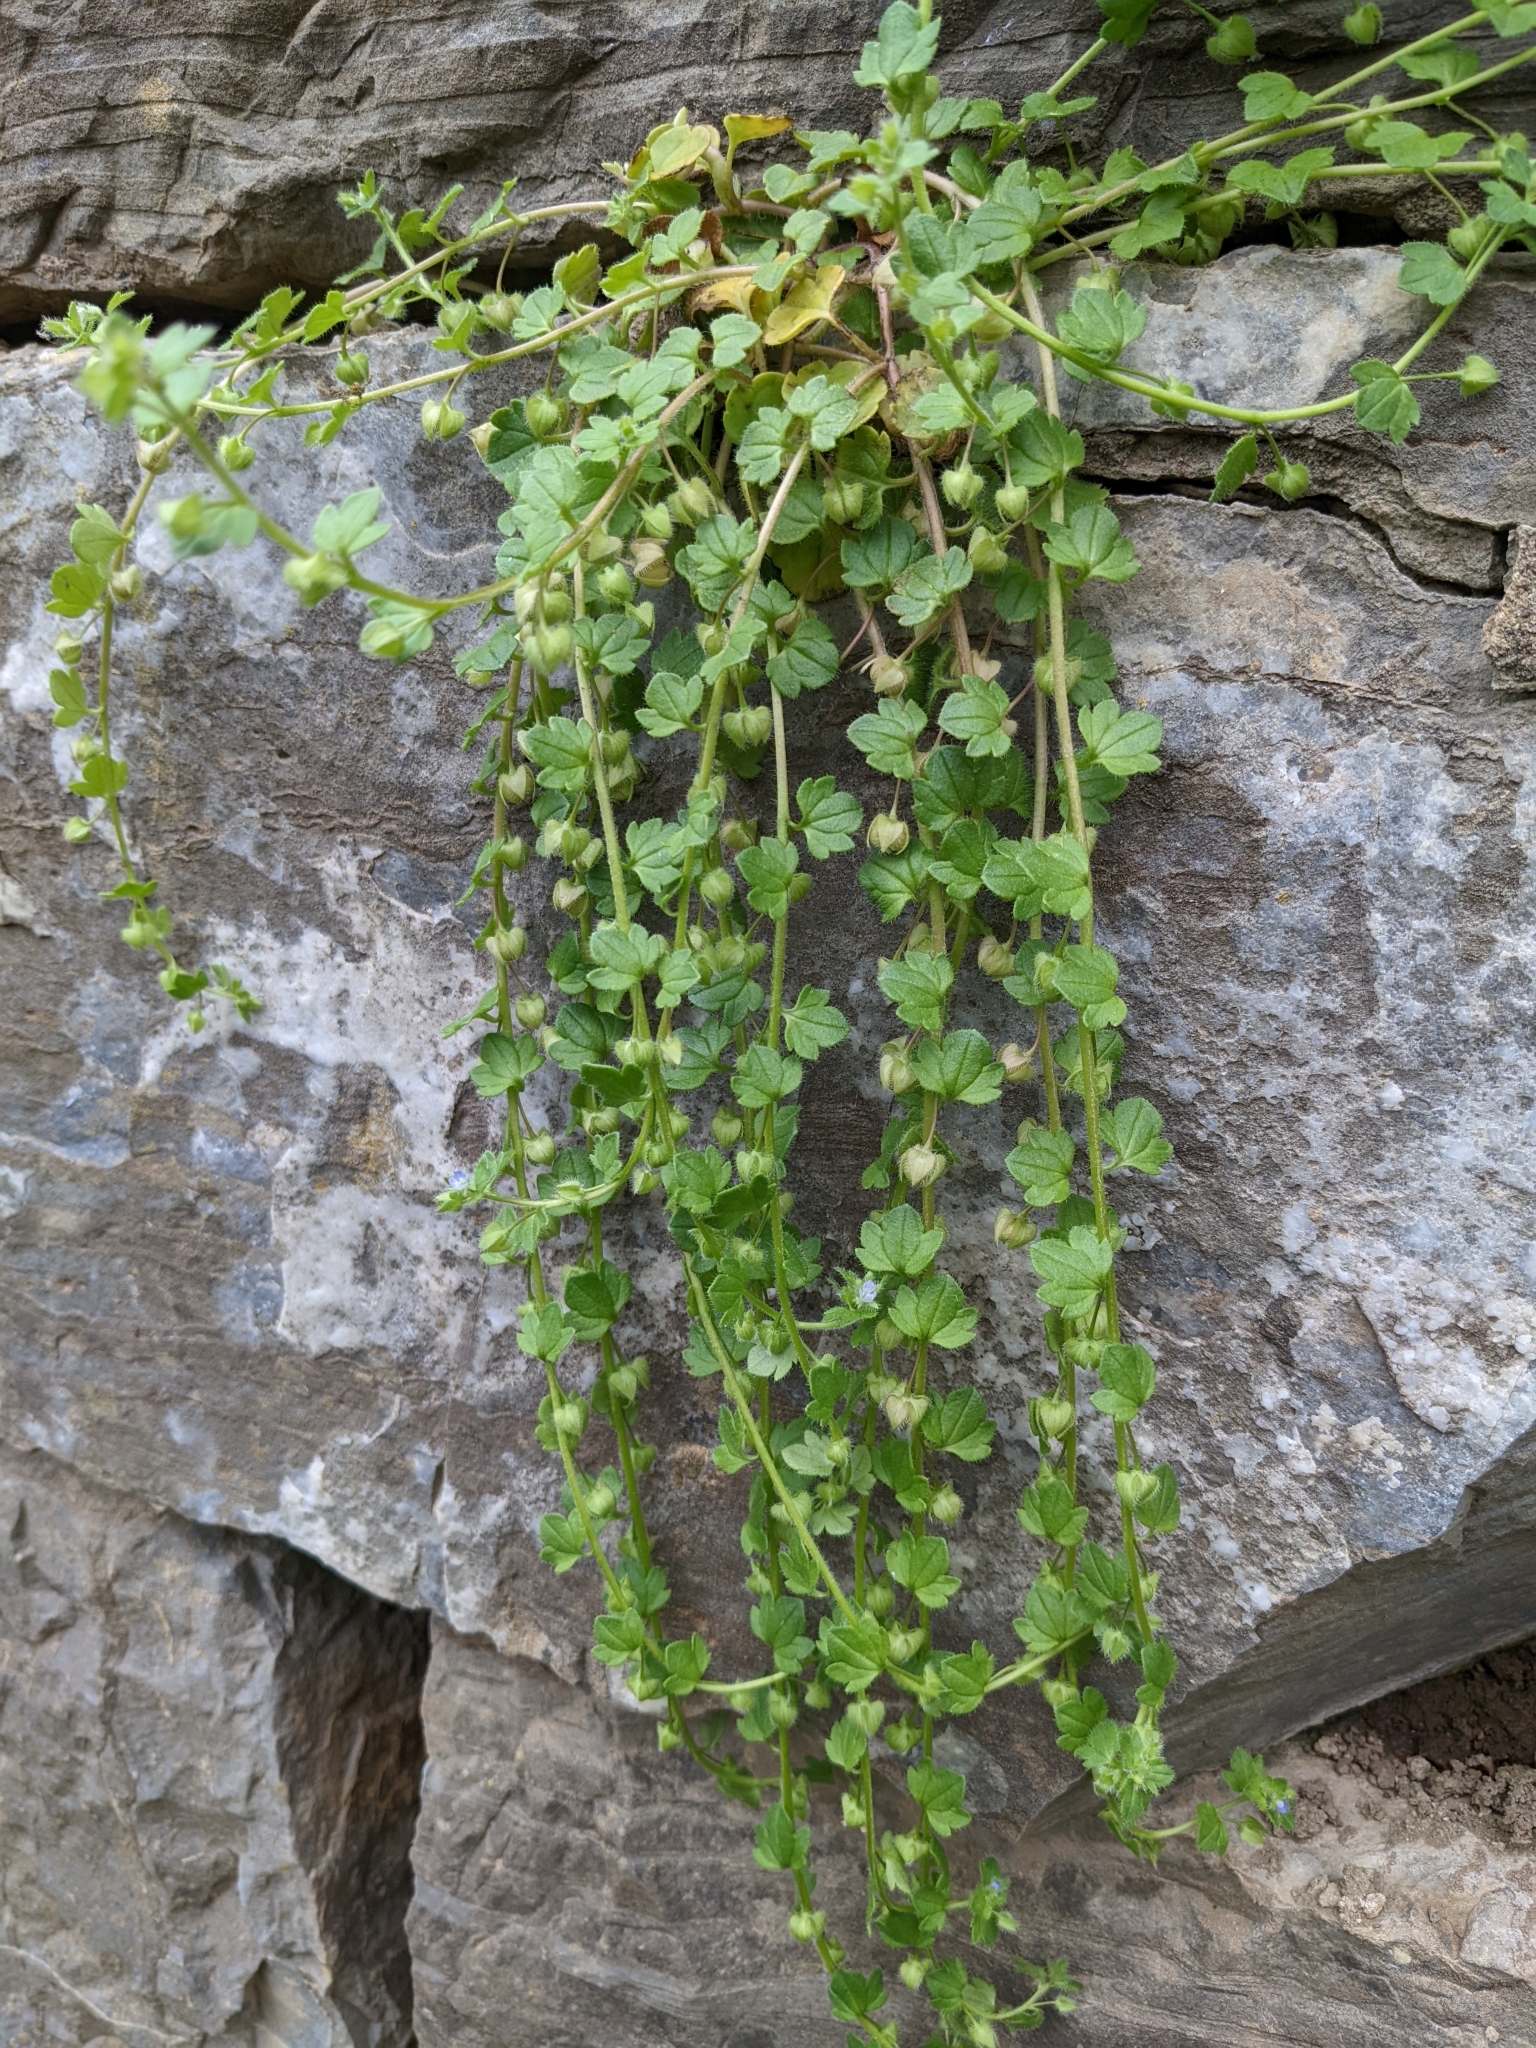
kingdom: Plantae
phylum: Tracheophyta
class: Magnoliopsida
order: Lamiales
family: Plantaginaceae
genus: Veronica
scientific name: Veronica hederifolia
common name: Ivy-leaved speedwell
